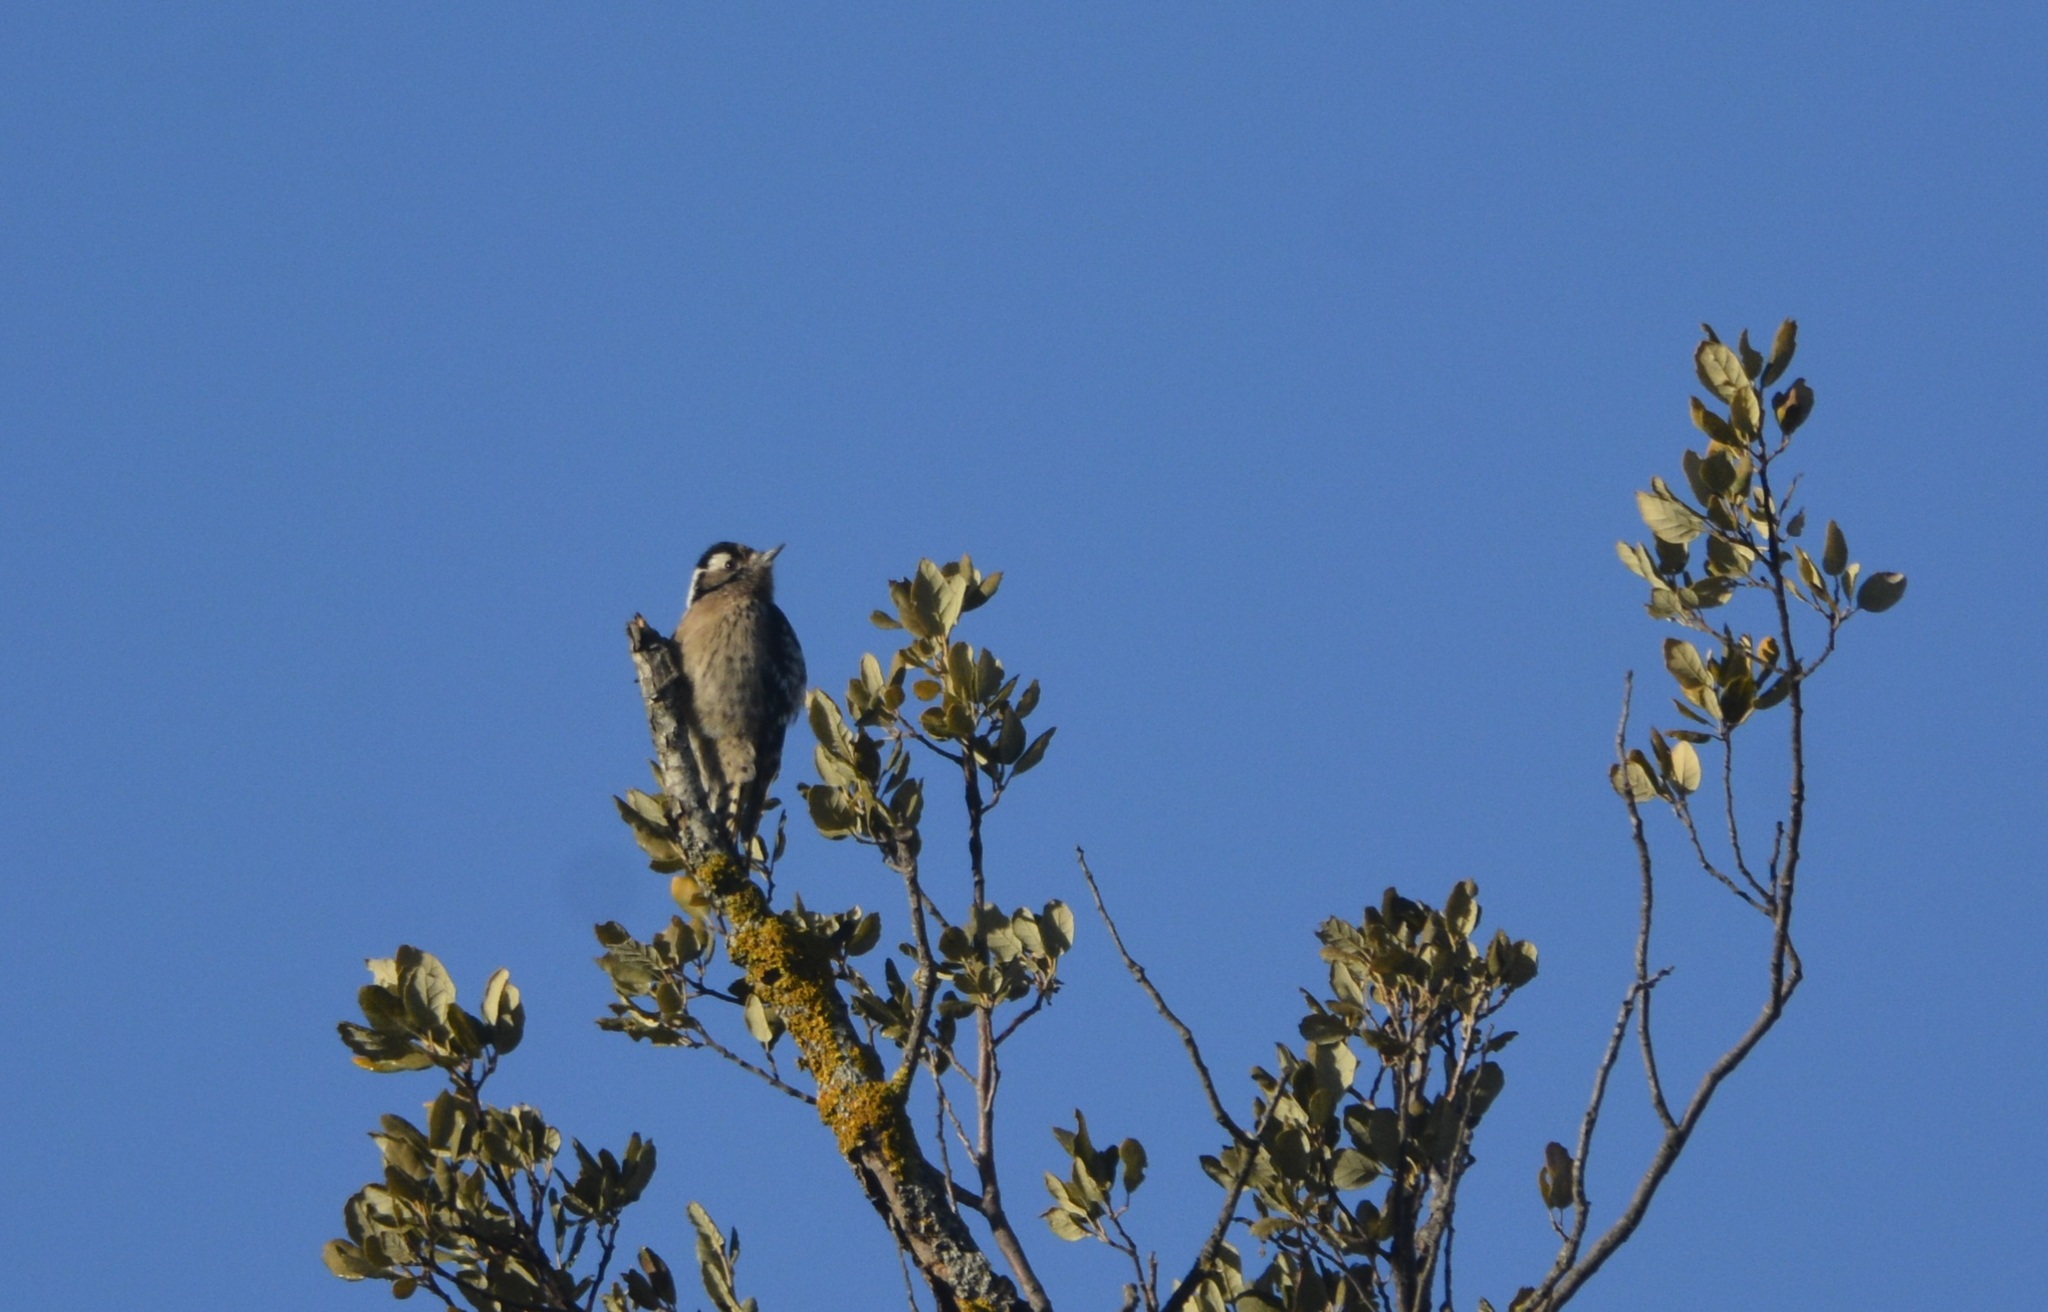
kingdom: Animalia
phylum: Chordata
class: Aves
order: Piciformes
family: Picidae
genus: Dryobates
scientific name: Dryobates minor
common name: Lesser spotted woodpecker
